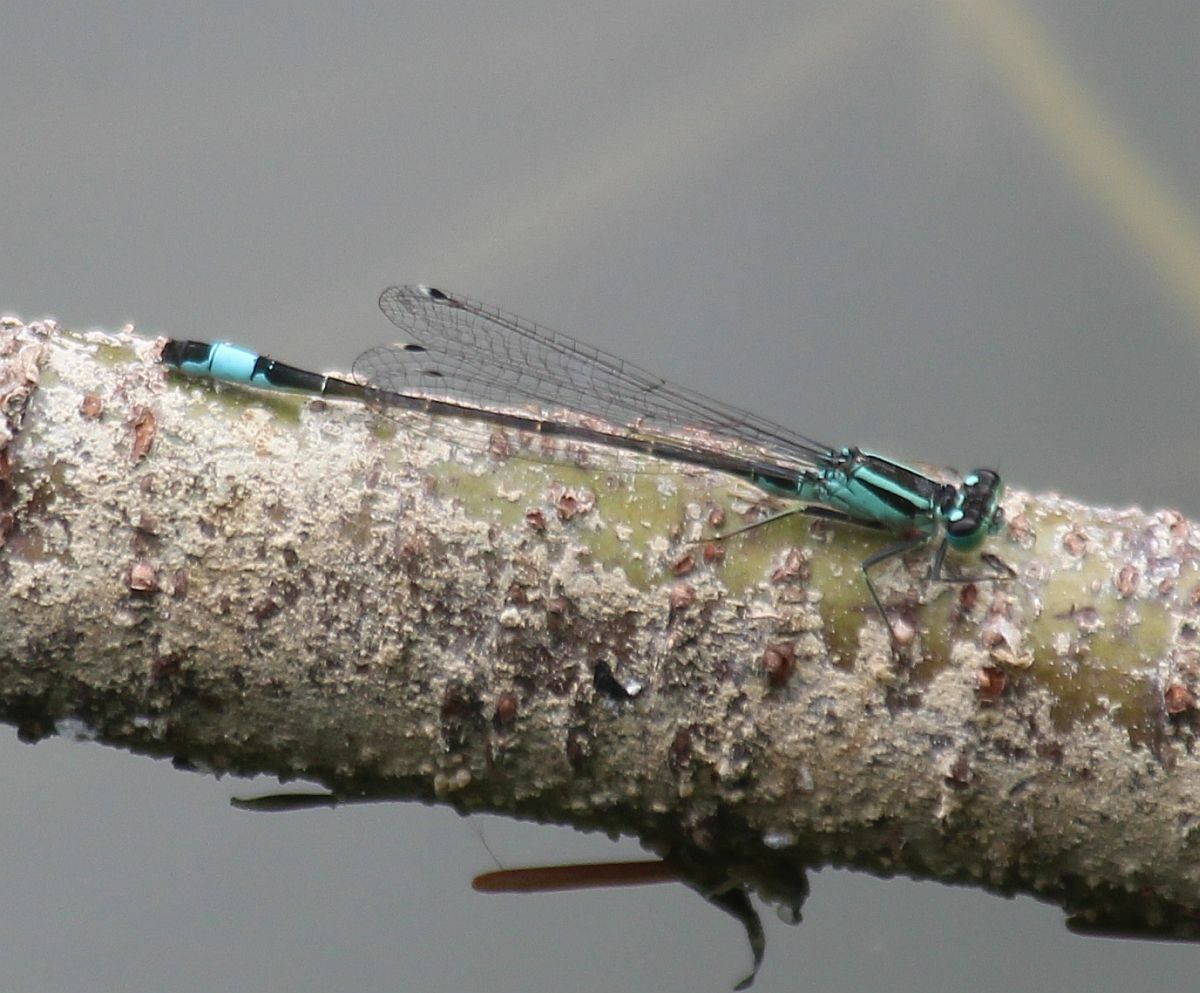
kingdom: Animalia
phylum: Arthropoda
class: Insecta
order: Odonata
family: Coenagrionidae
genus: Ischnura
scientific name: Ischnura elegans
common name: Blue-tailed damselfly
